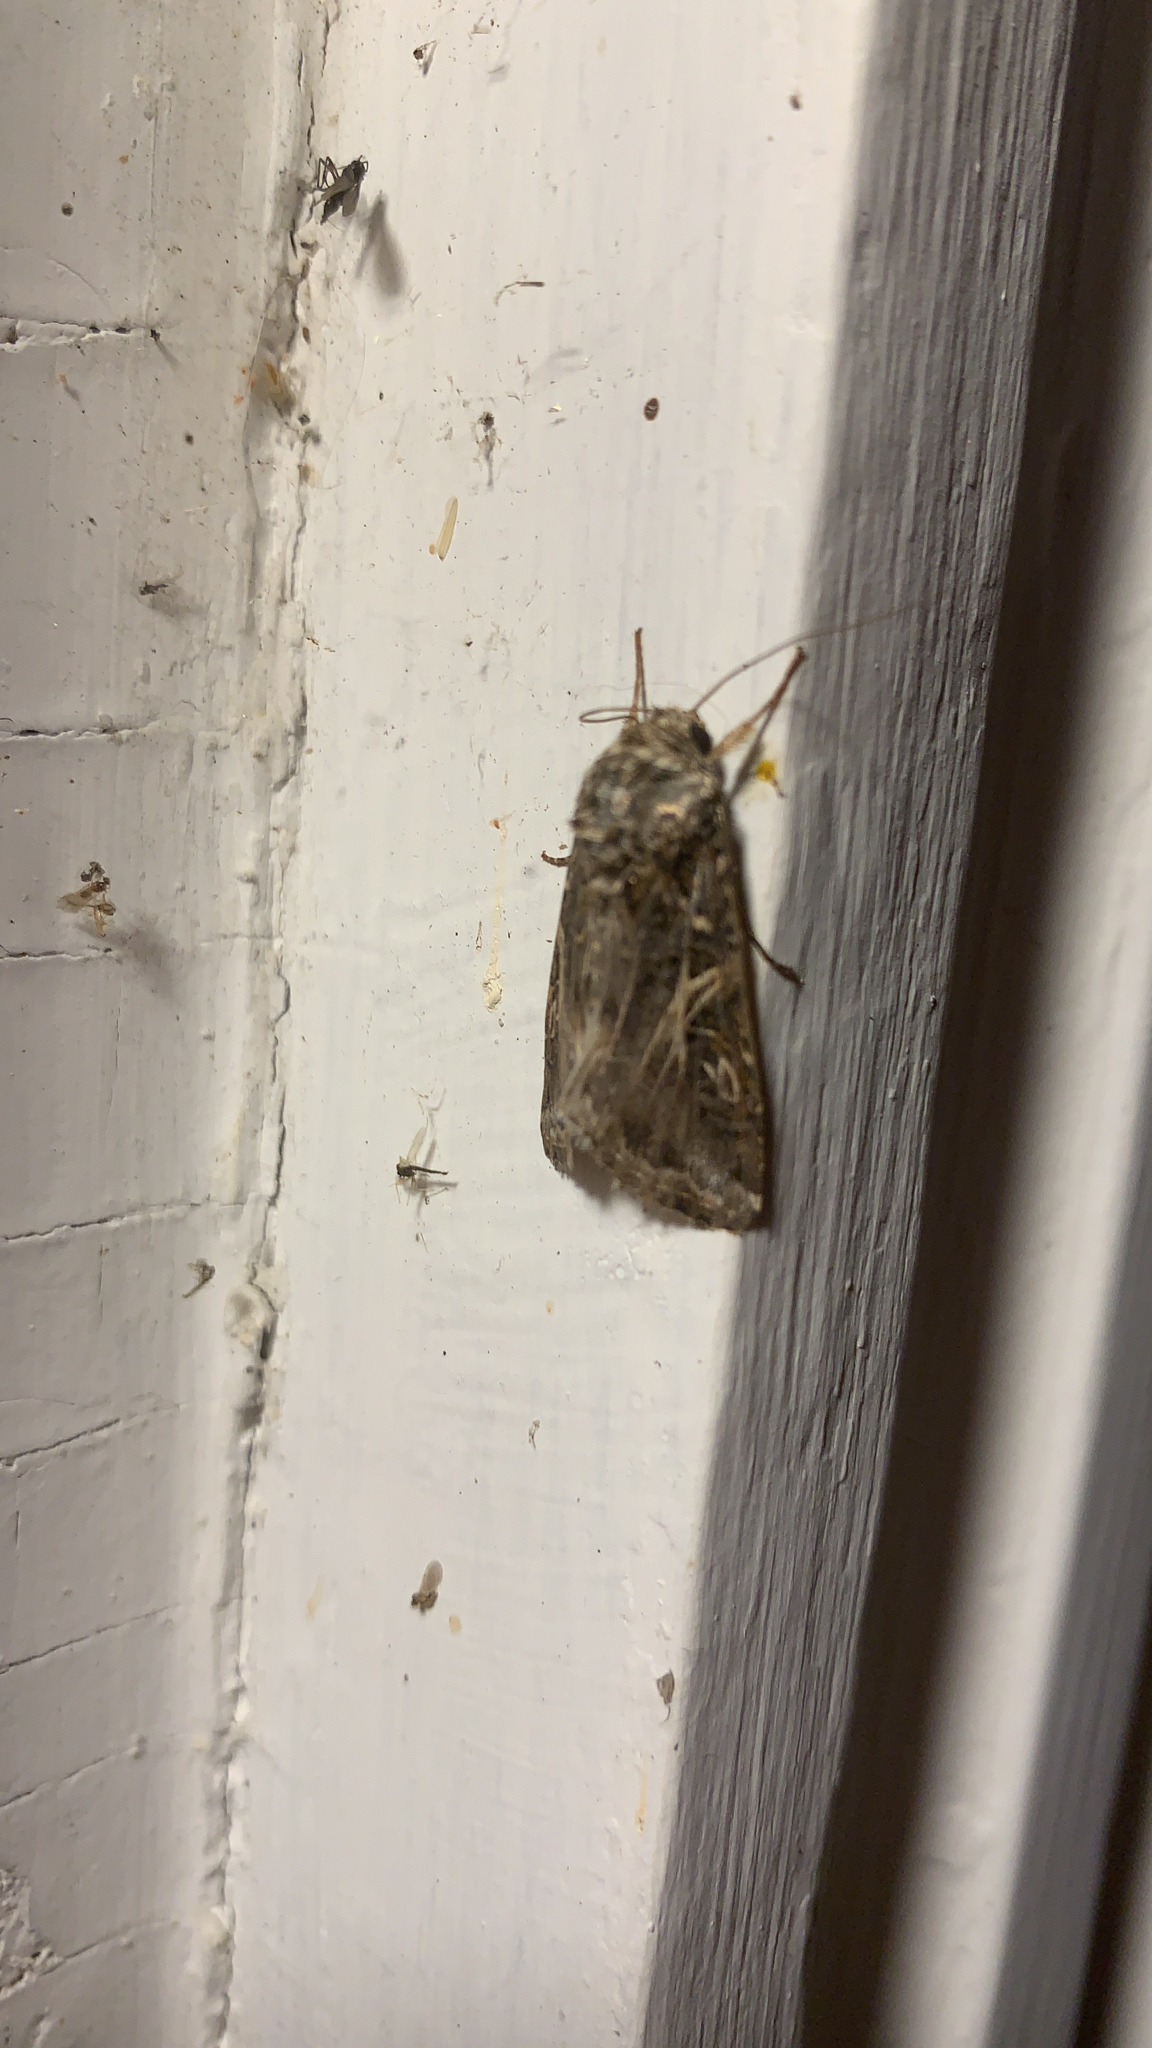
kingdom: Animalia
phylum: Arthropoda
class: Insecta
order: Lepidoptera
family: Noctuidae
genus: Spodoptera
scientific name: Spodoptera ornithogalli
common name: Yellow-striped armyworm
